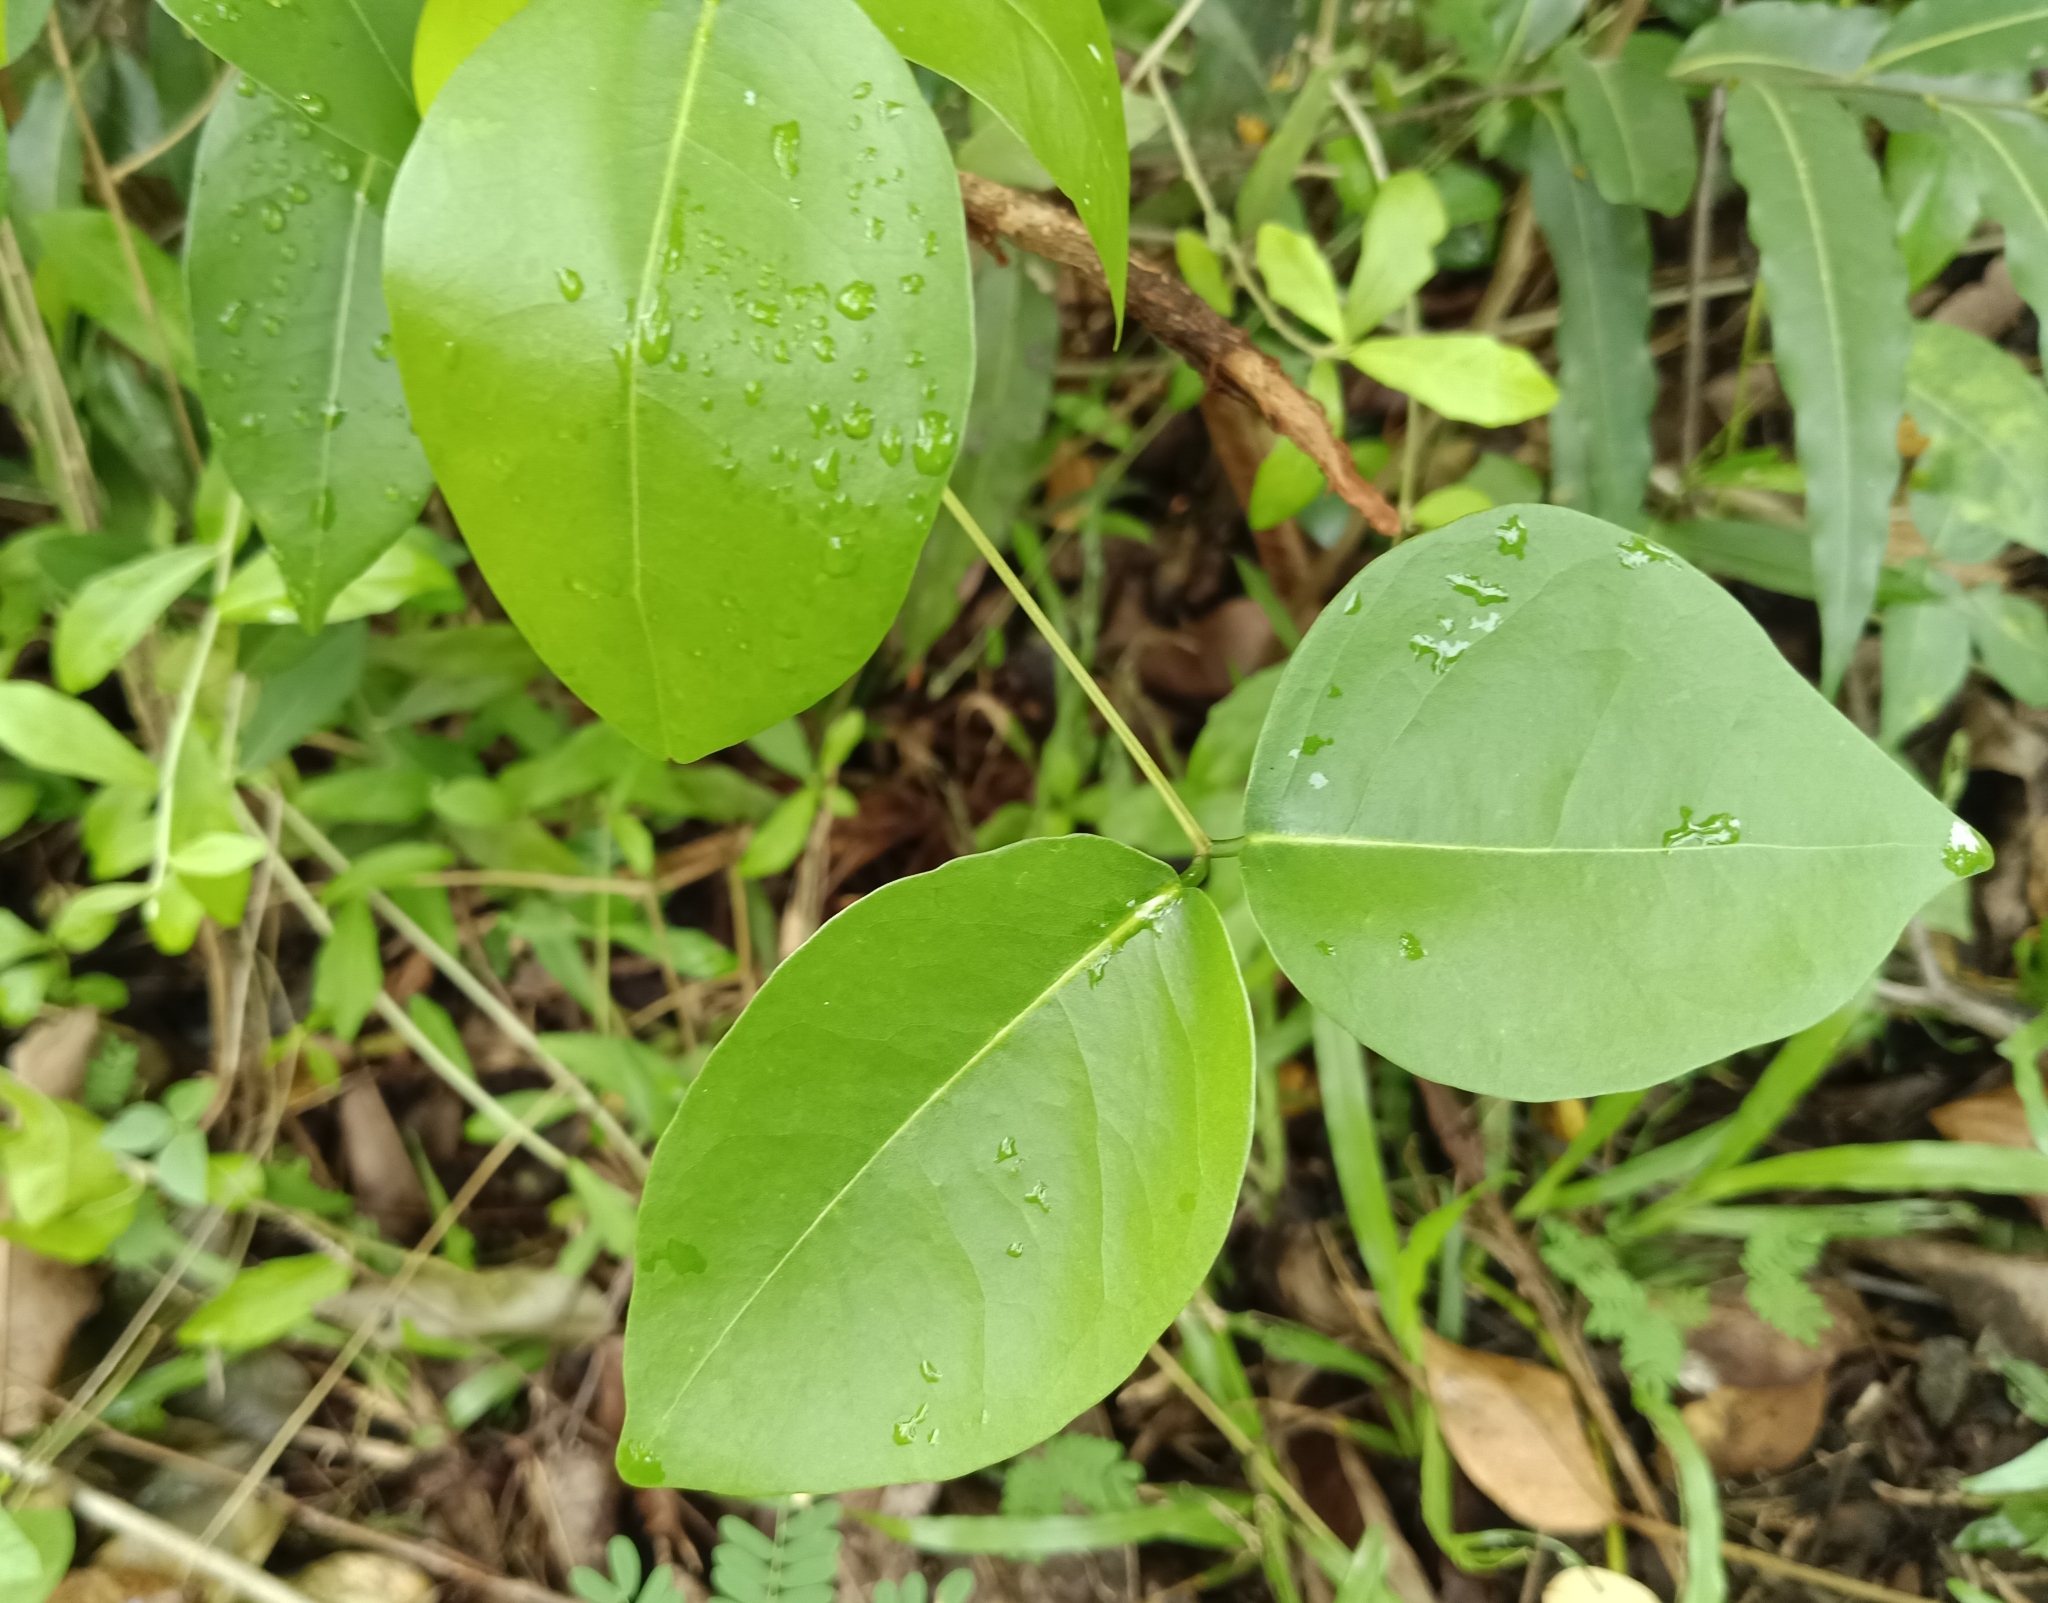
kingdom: Plantae
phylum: Tracheophyta
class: Magnoliopsida
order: Fabales
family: Fabaceae
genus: Derris
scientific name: Derris trifoliata
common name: Three-leaf derris
